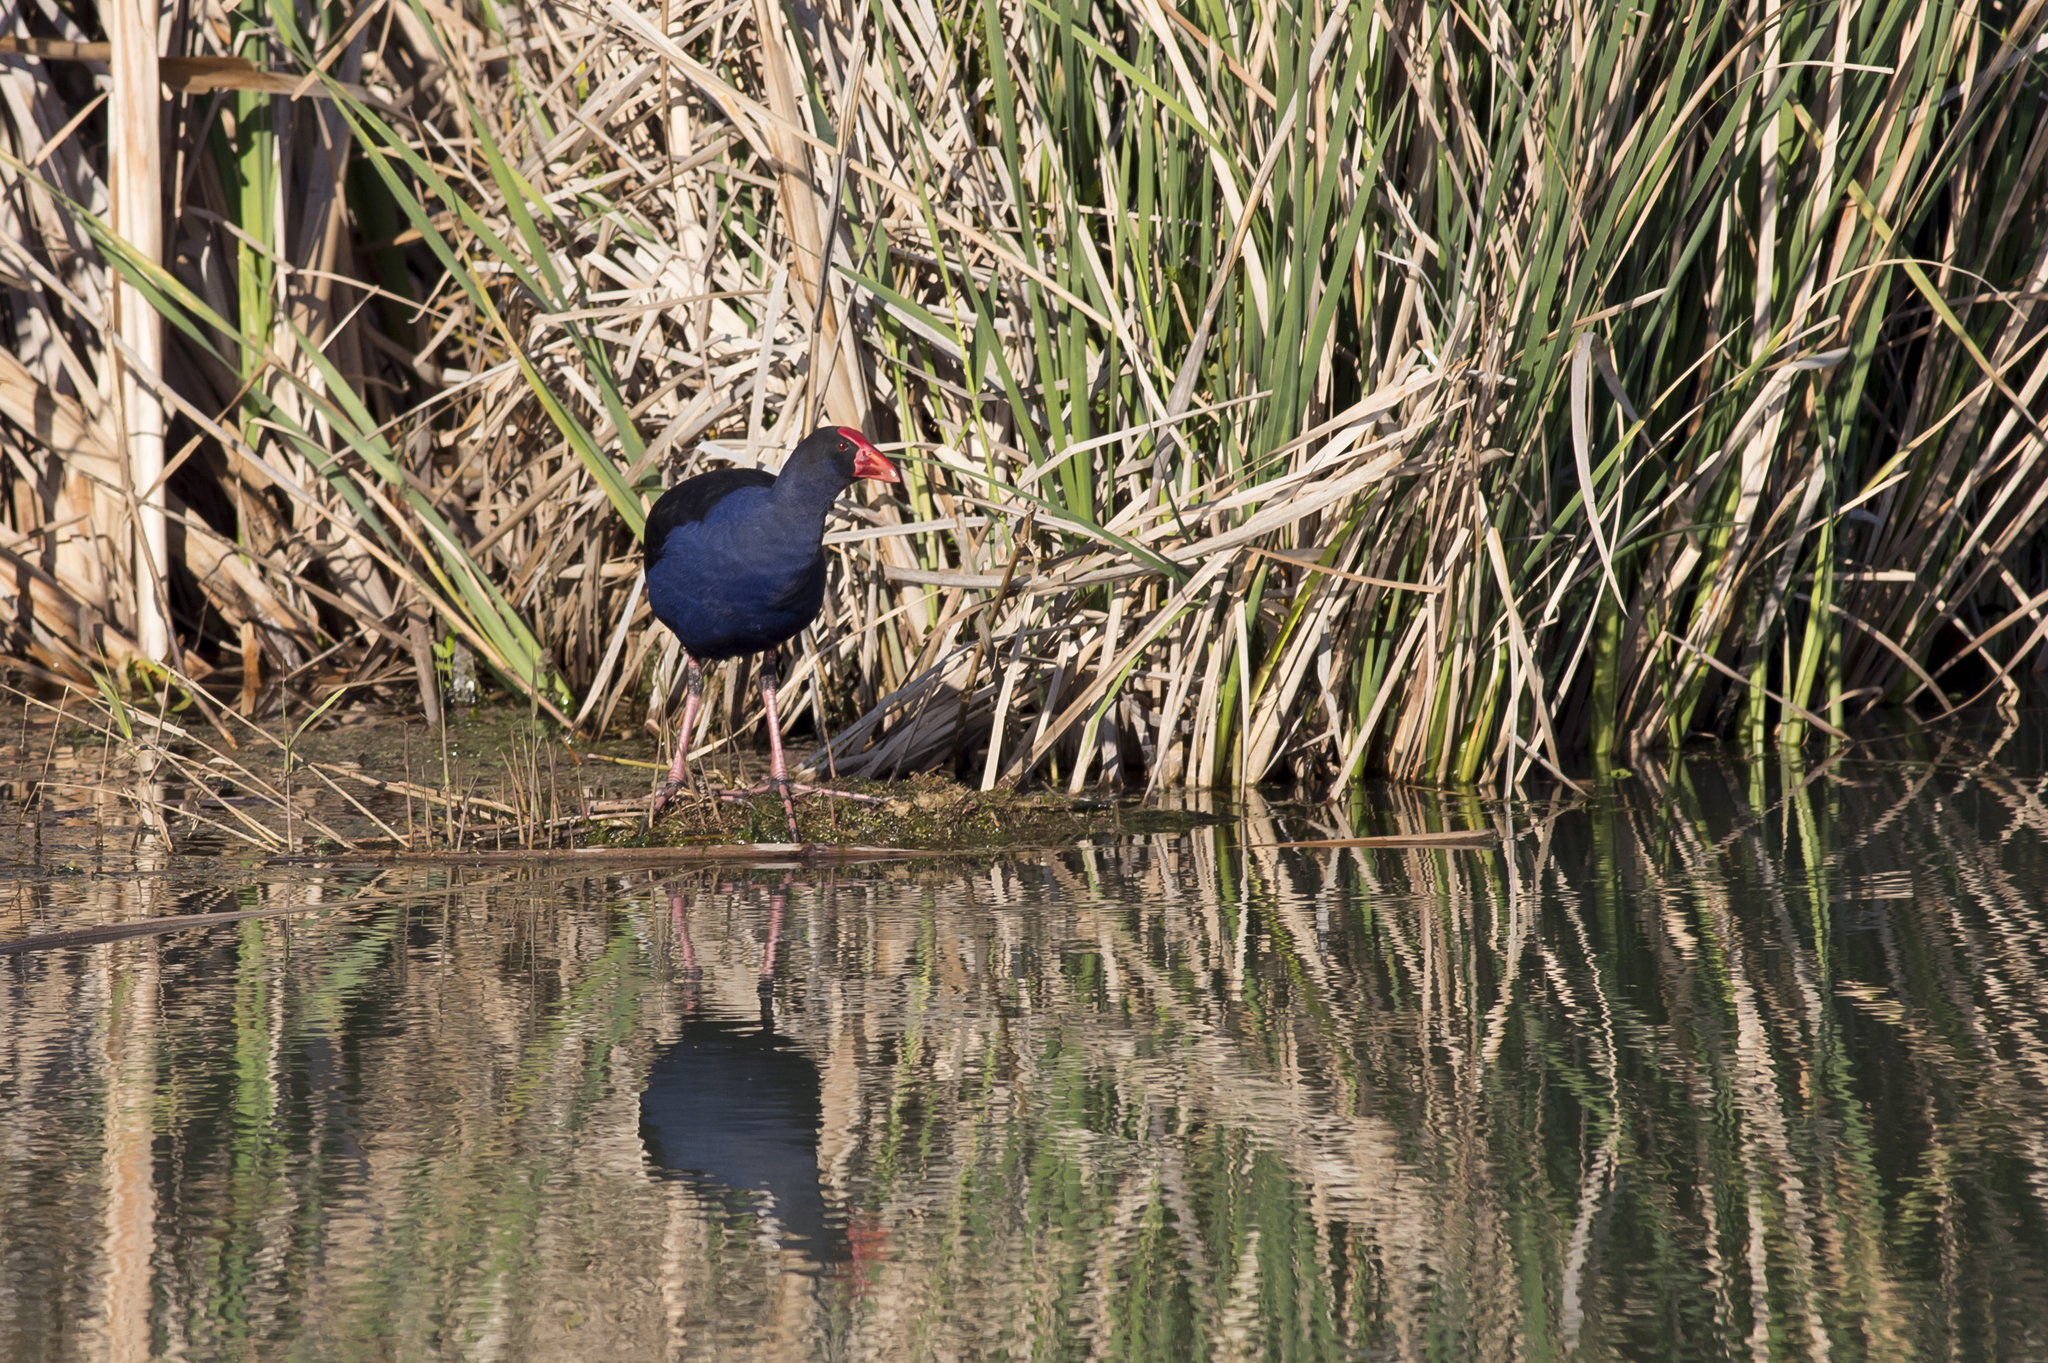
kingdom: Animalia
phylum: Chordata
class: Aves
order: Gruiformes
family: Rallidae
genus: Porphyrio
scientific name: Porphyrio melanotus
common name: Australasian swamphen
